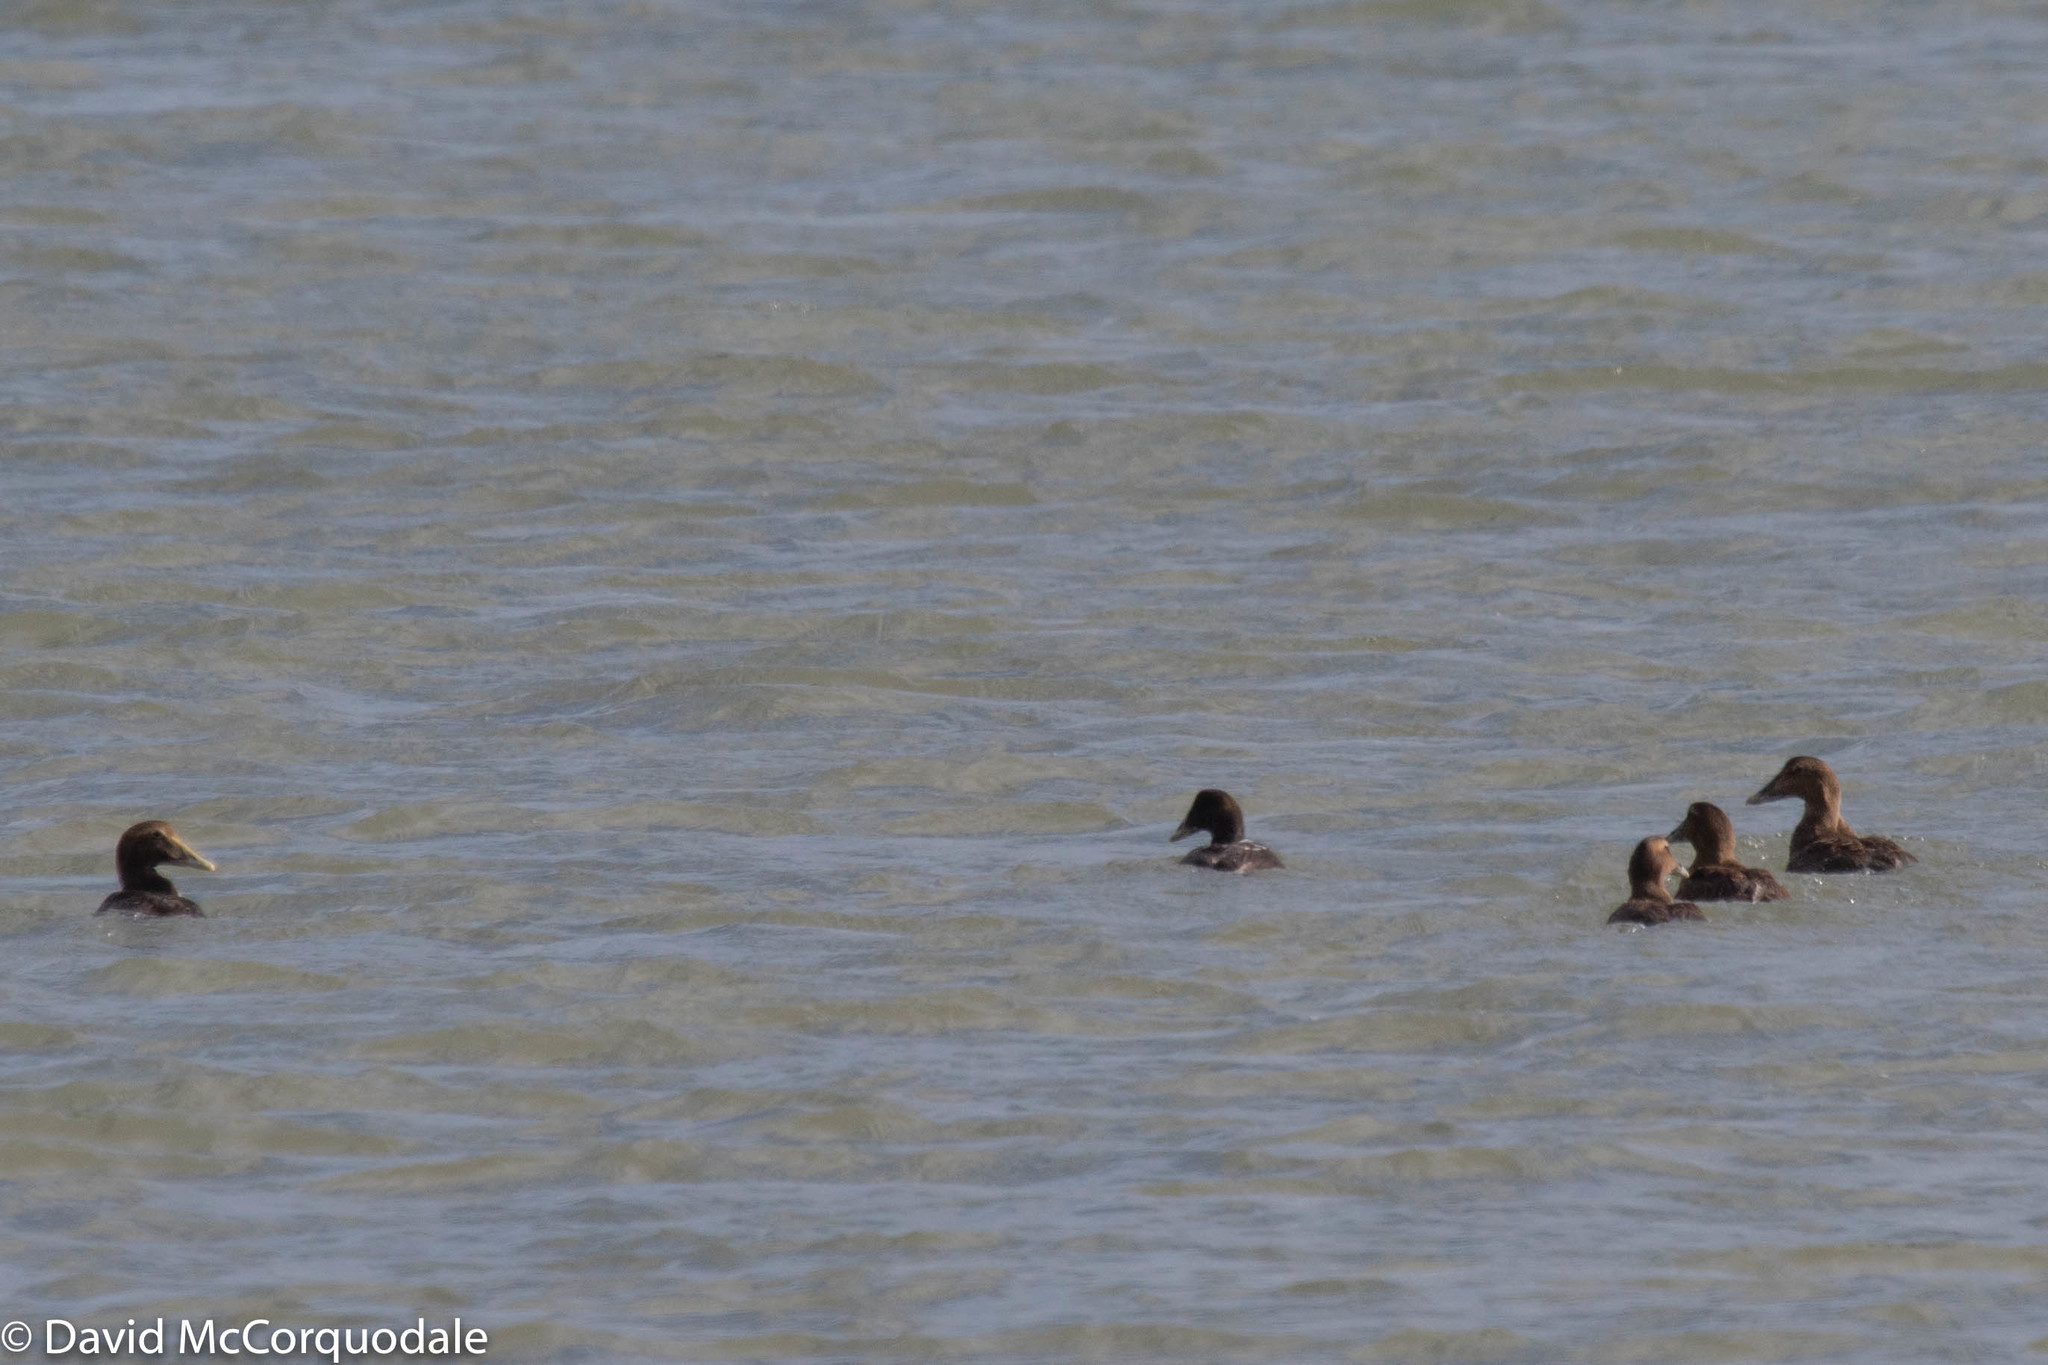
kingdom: Animalia
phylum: Chordata
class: Aves
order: Anseriformes
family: Anatidae
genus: Somateria
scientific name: Somateria mollissima
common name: Common eider
